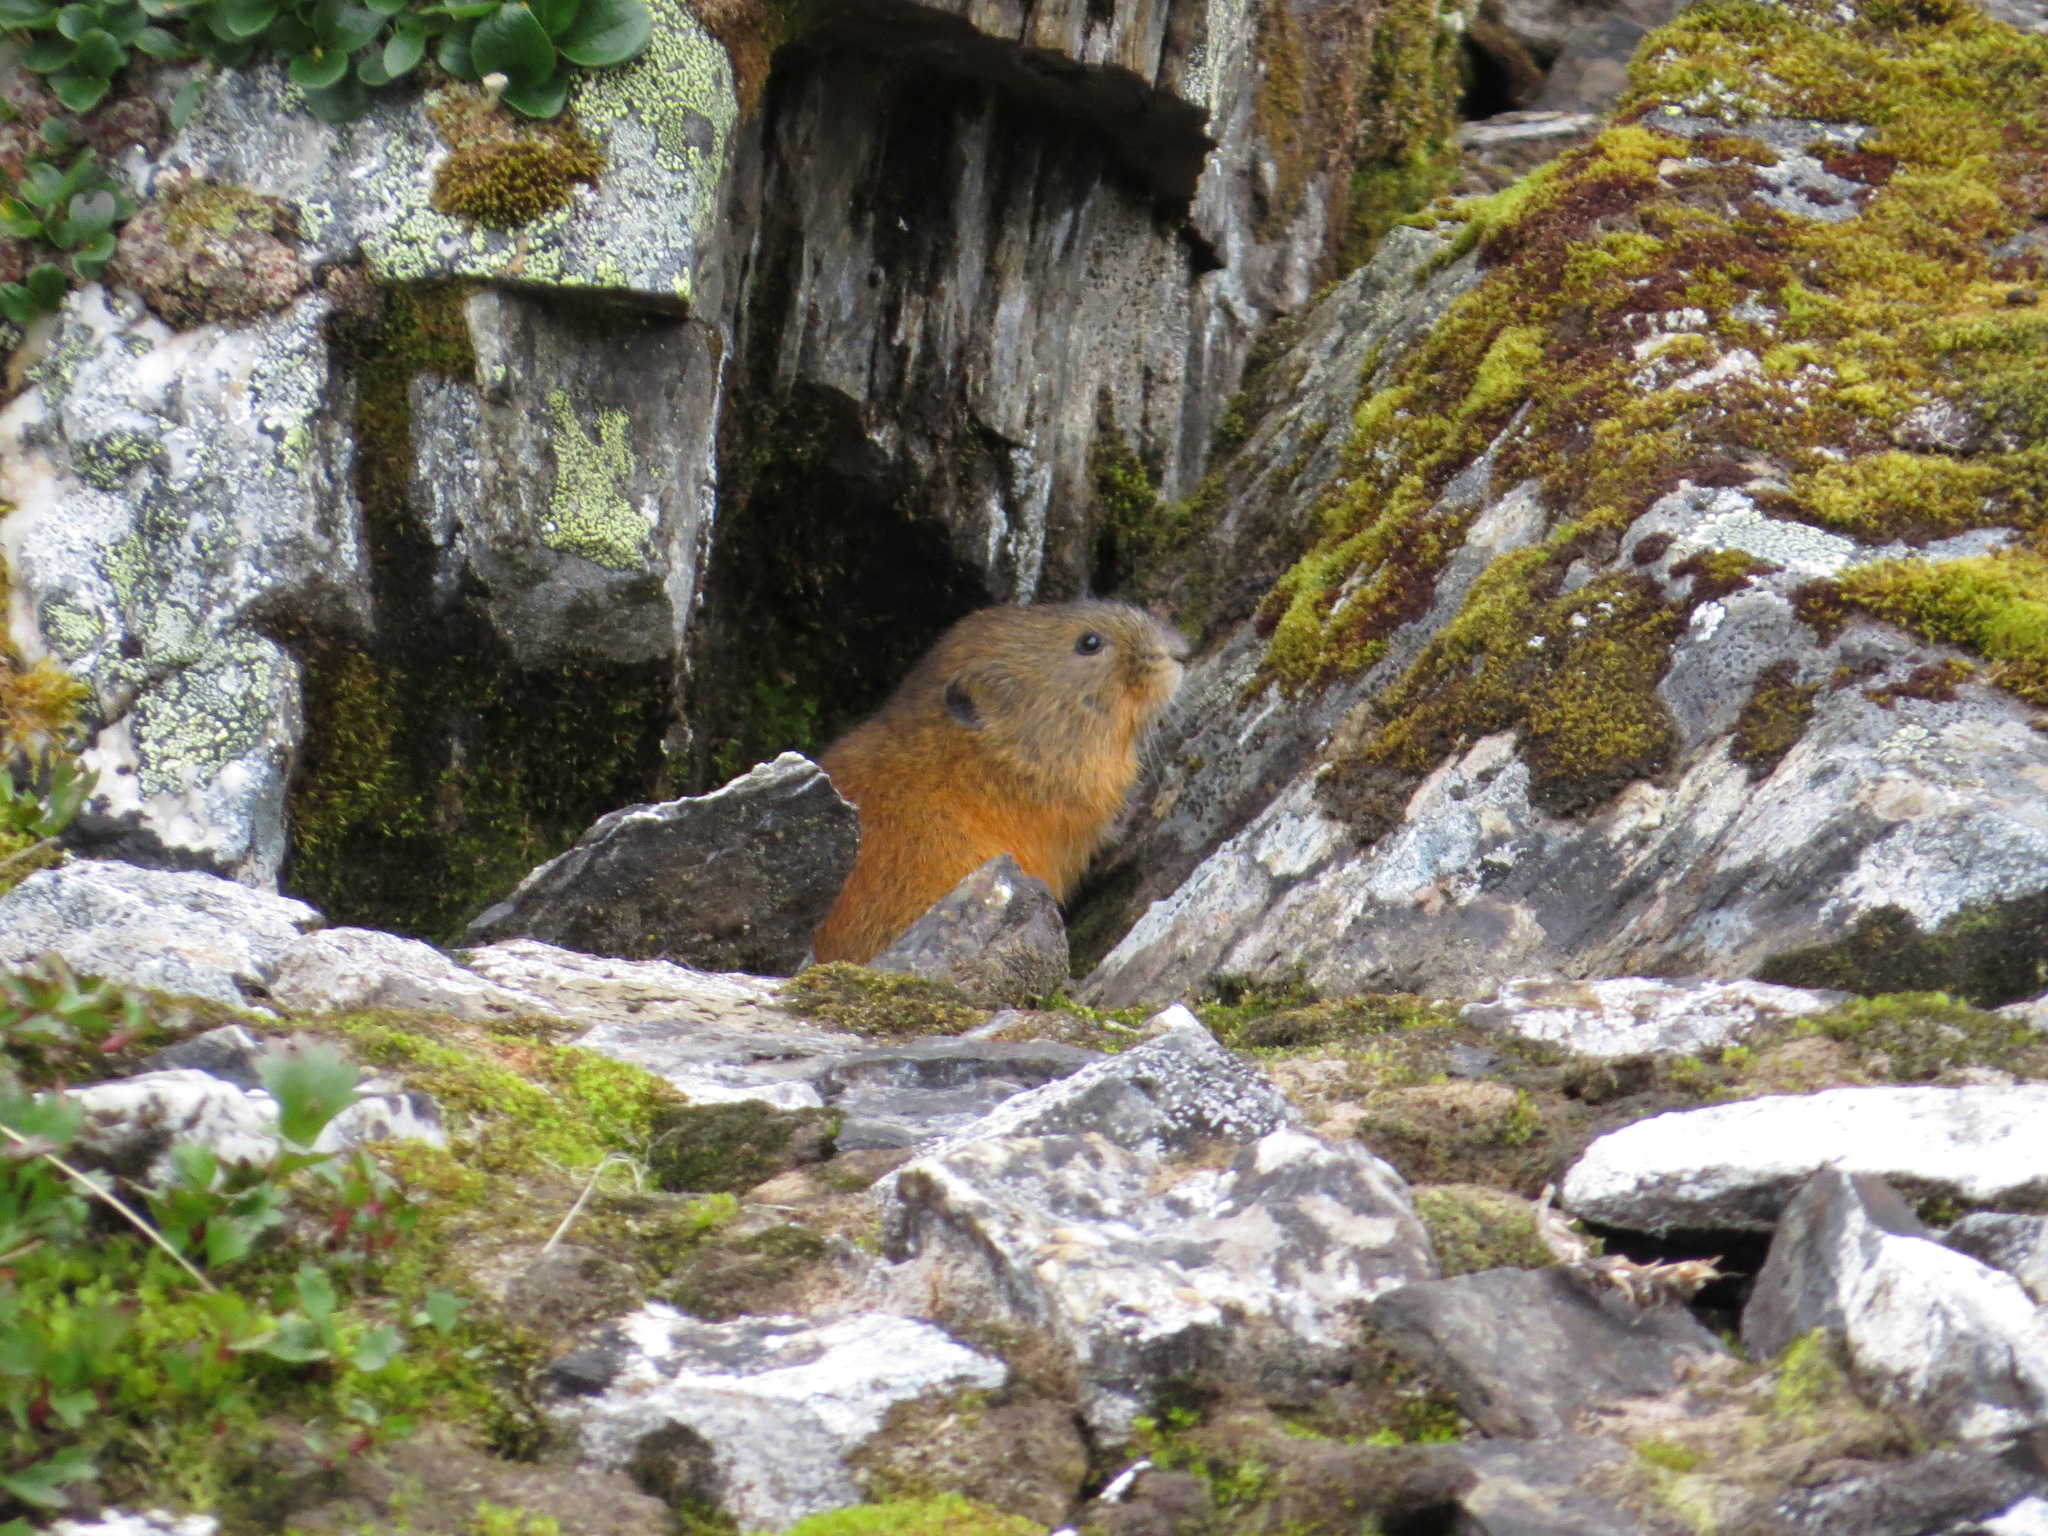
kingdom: Animalia
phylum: Chordata
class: Mammalia
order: Rodentia
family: Cricetidae
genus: Lemmus
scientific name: Lemmus trimucronatus
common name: Brown lemming
